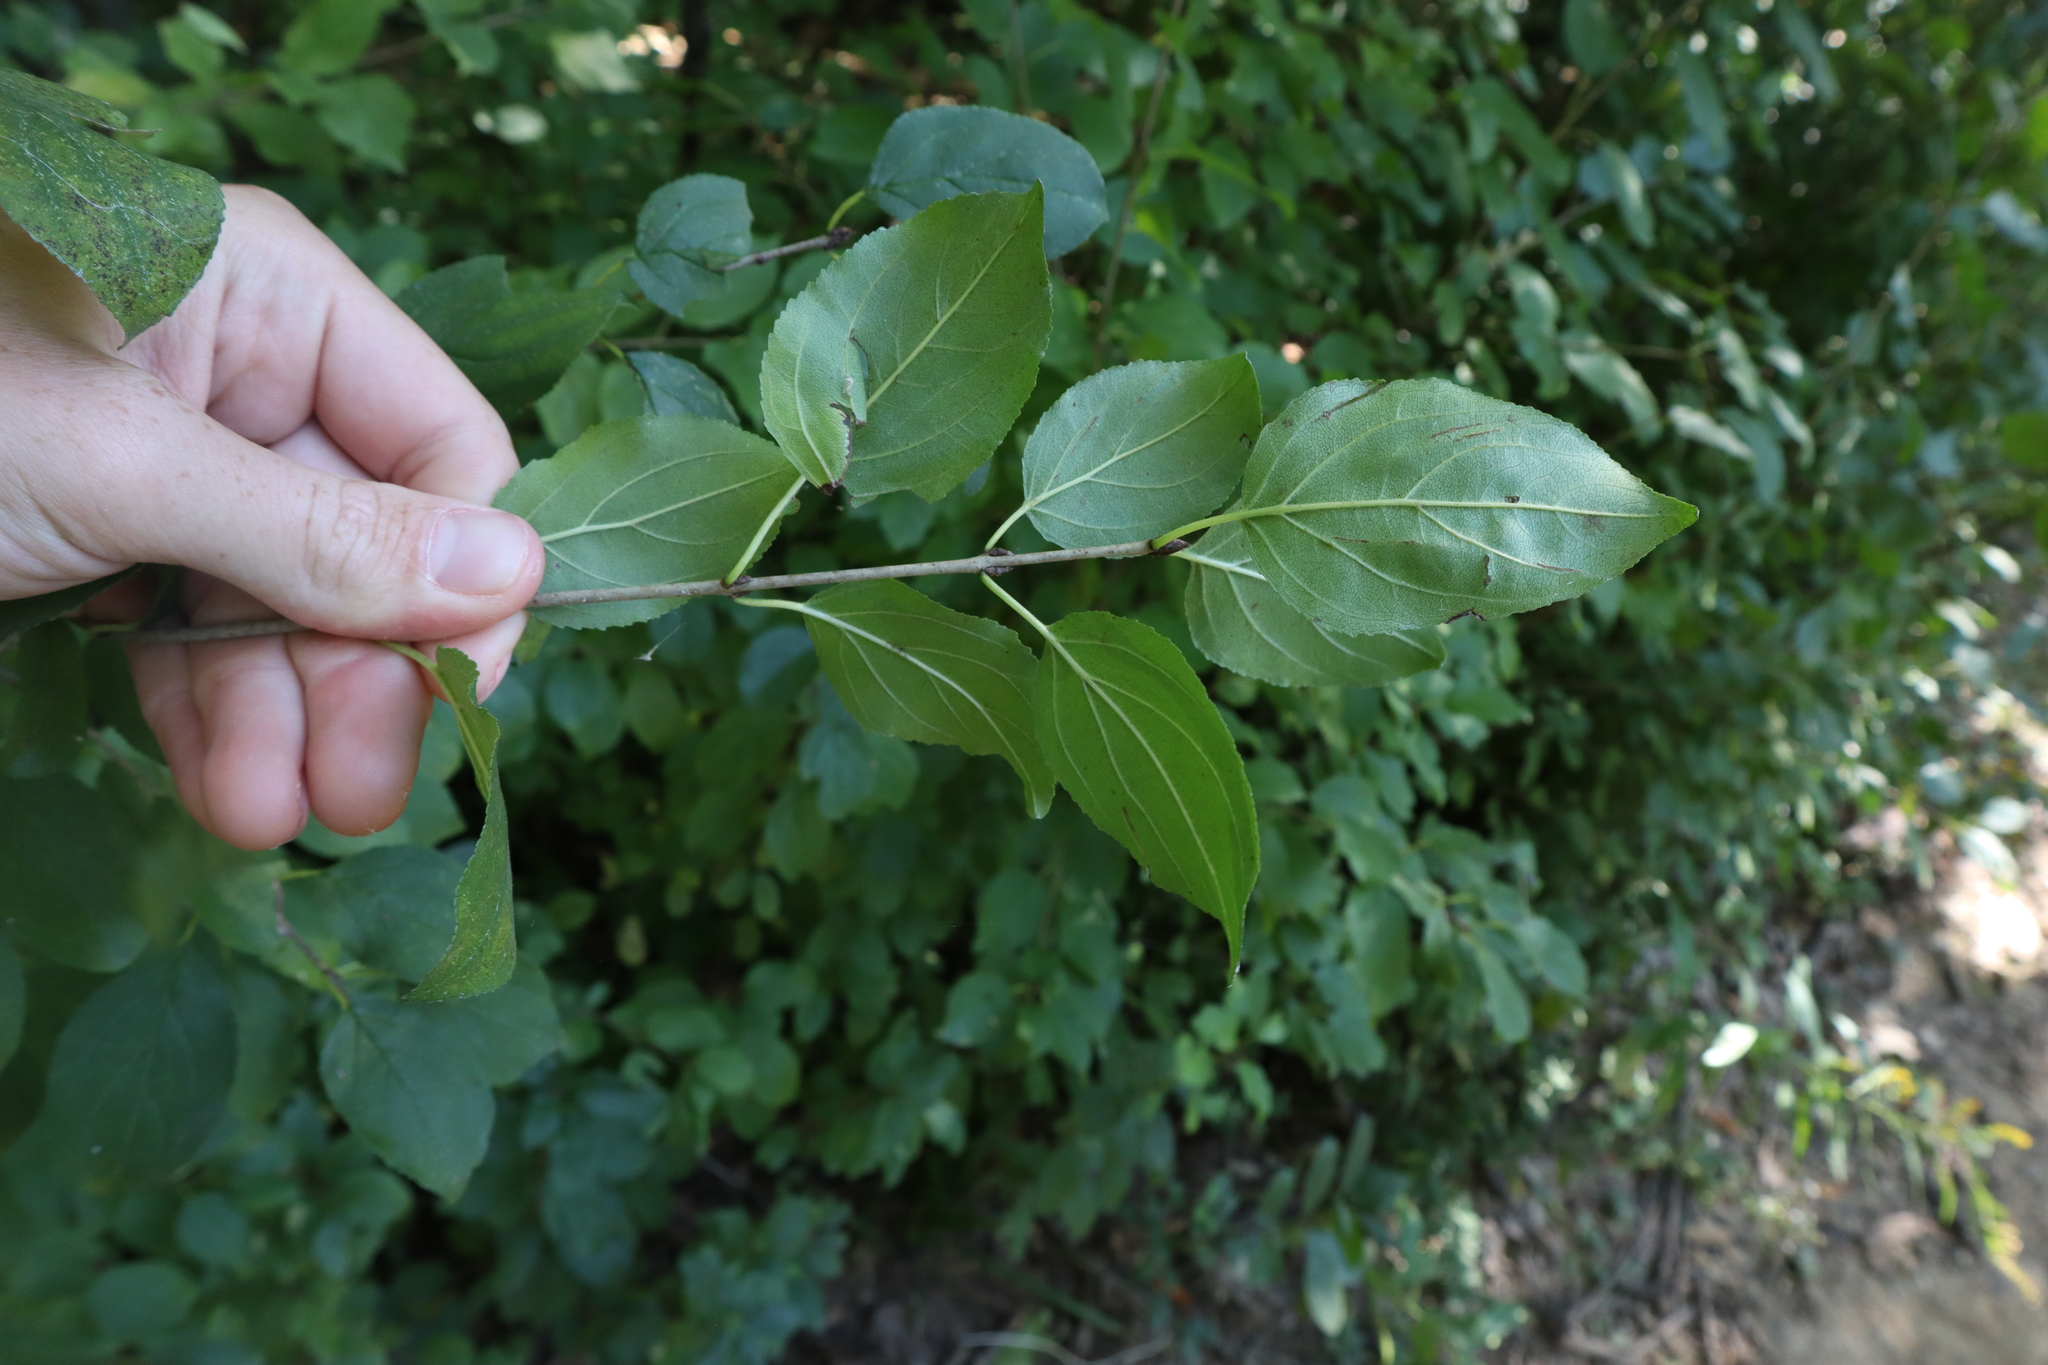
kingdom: Plantae
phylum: Tracheophyta
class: Magnoliopsida
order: Rosales
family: Rhamnaceae
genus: Rhamnus
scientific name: Rhamnus cathartica
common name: Common buckthorn
